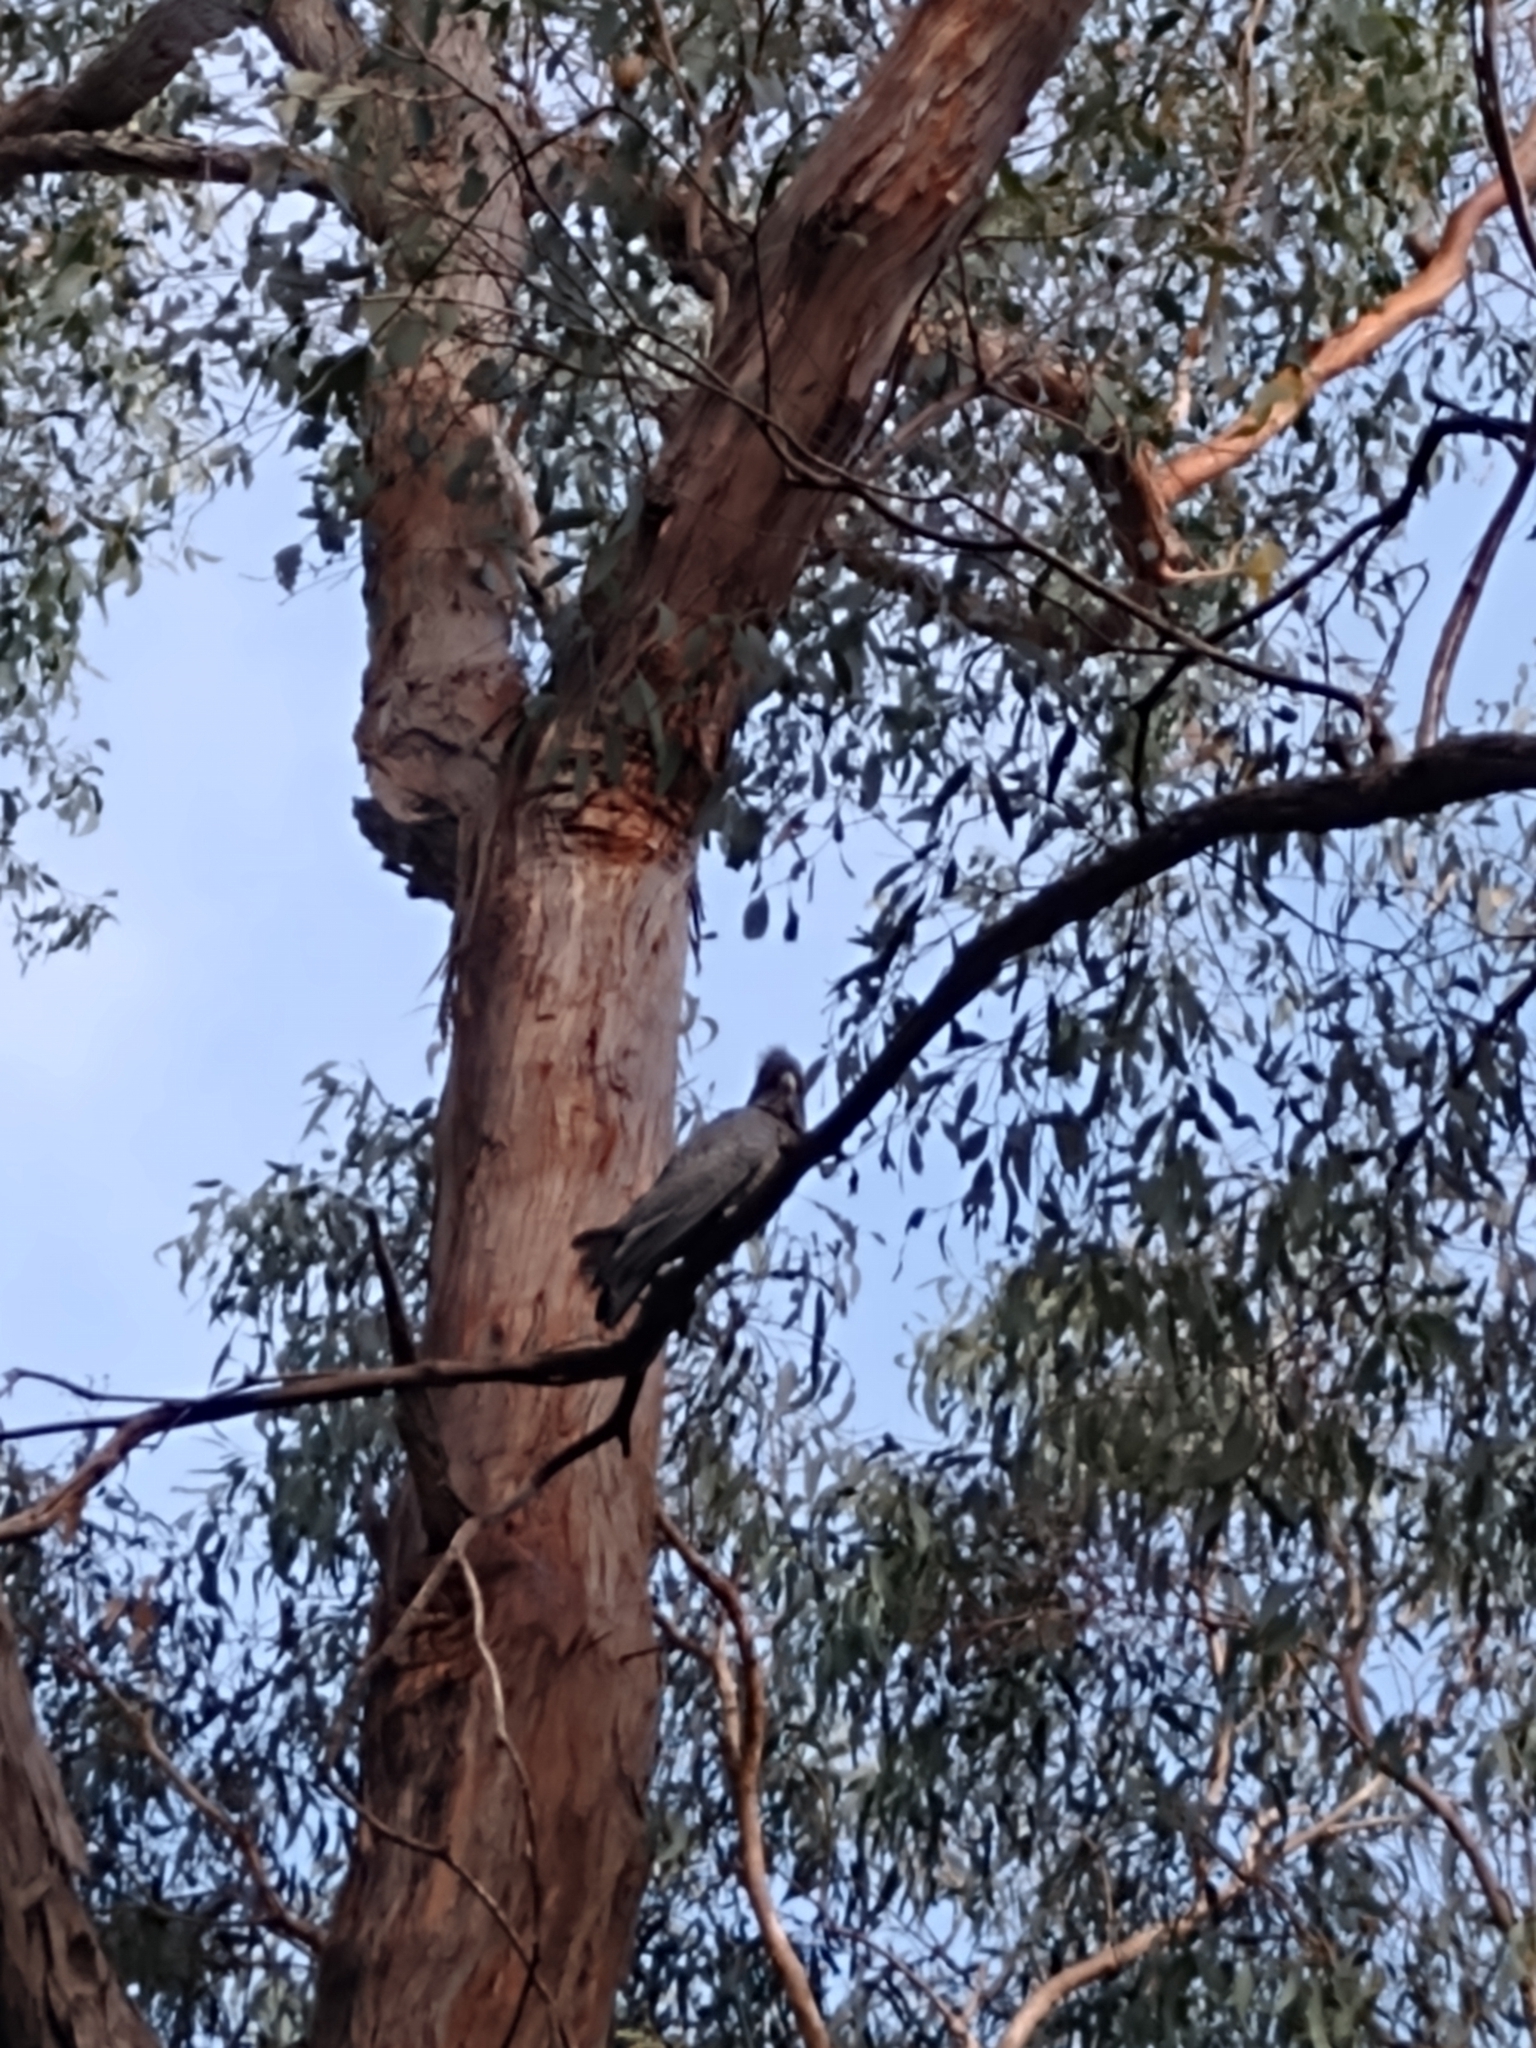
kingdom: Animalia
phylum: Chordata
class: Aves
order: Psittaciformes
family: Psittacidae
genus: Callocephalon
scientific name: Callocephalon fimbriatum
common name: Gang-gang cockatoo
